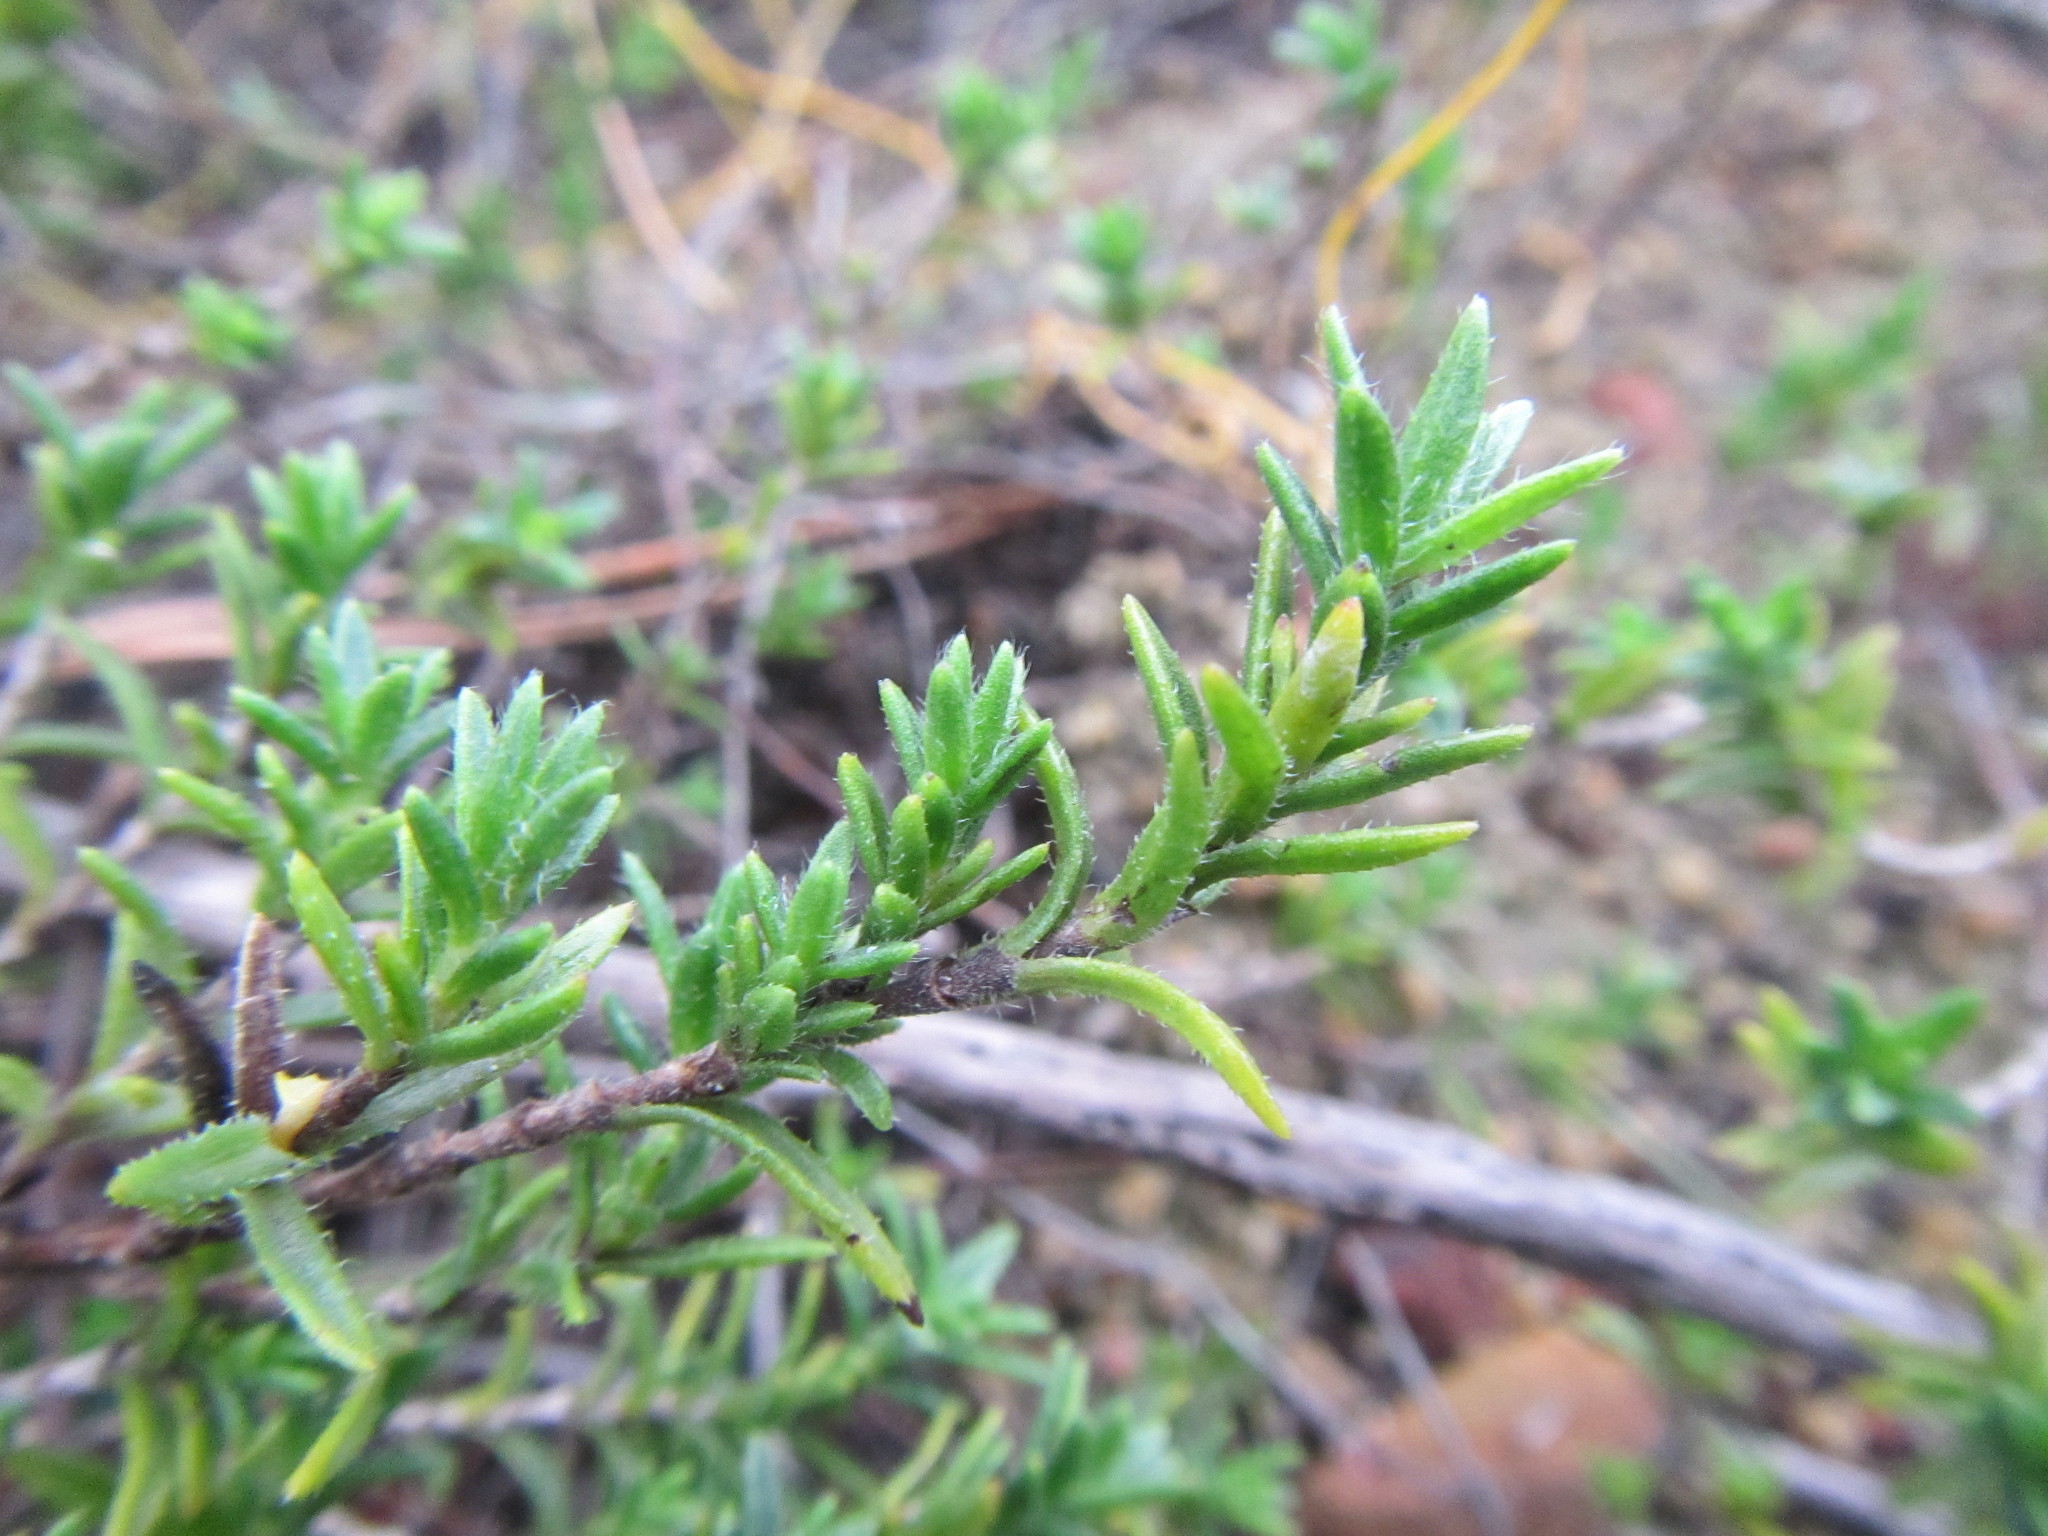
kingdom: Plantae
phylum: Tracheophyta
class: Magnoliopsida
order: Asterales
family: Asteraceae
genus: Pteronia
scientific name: Pteronia hirsuta
